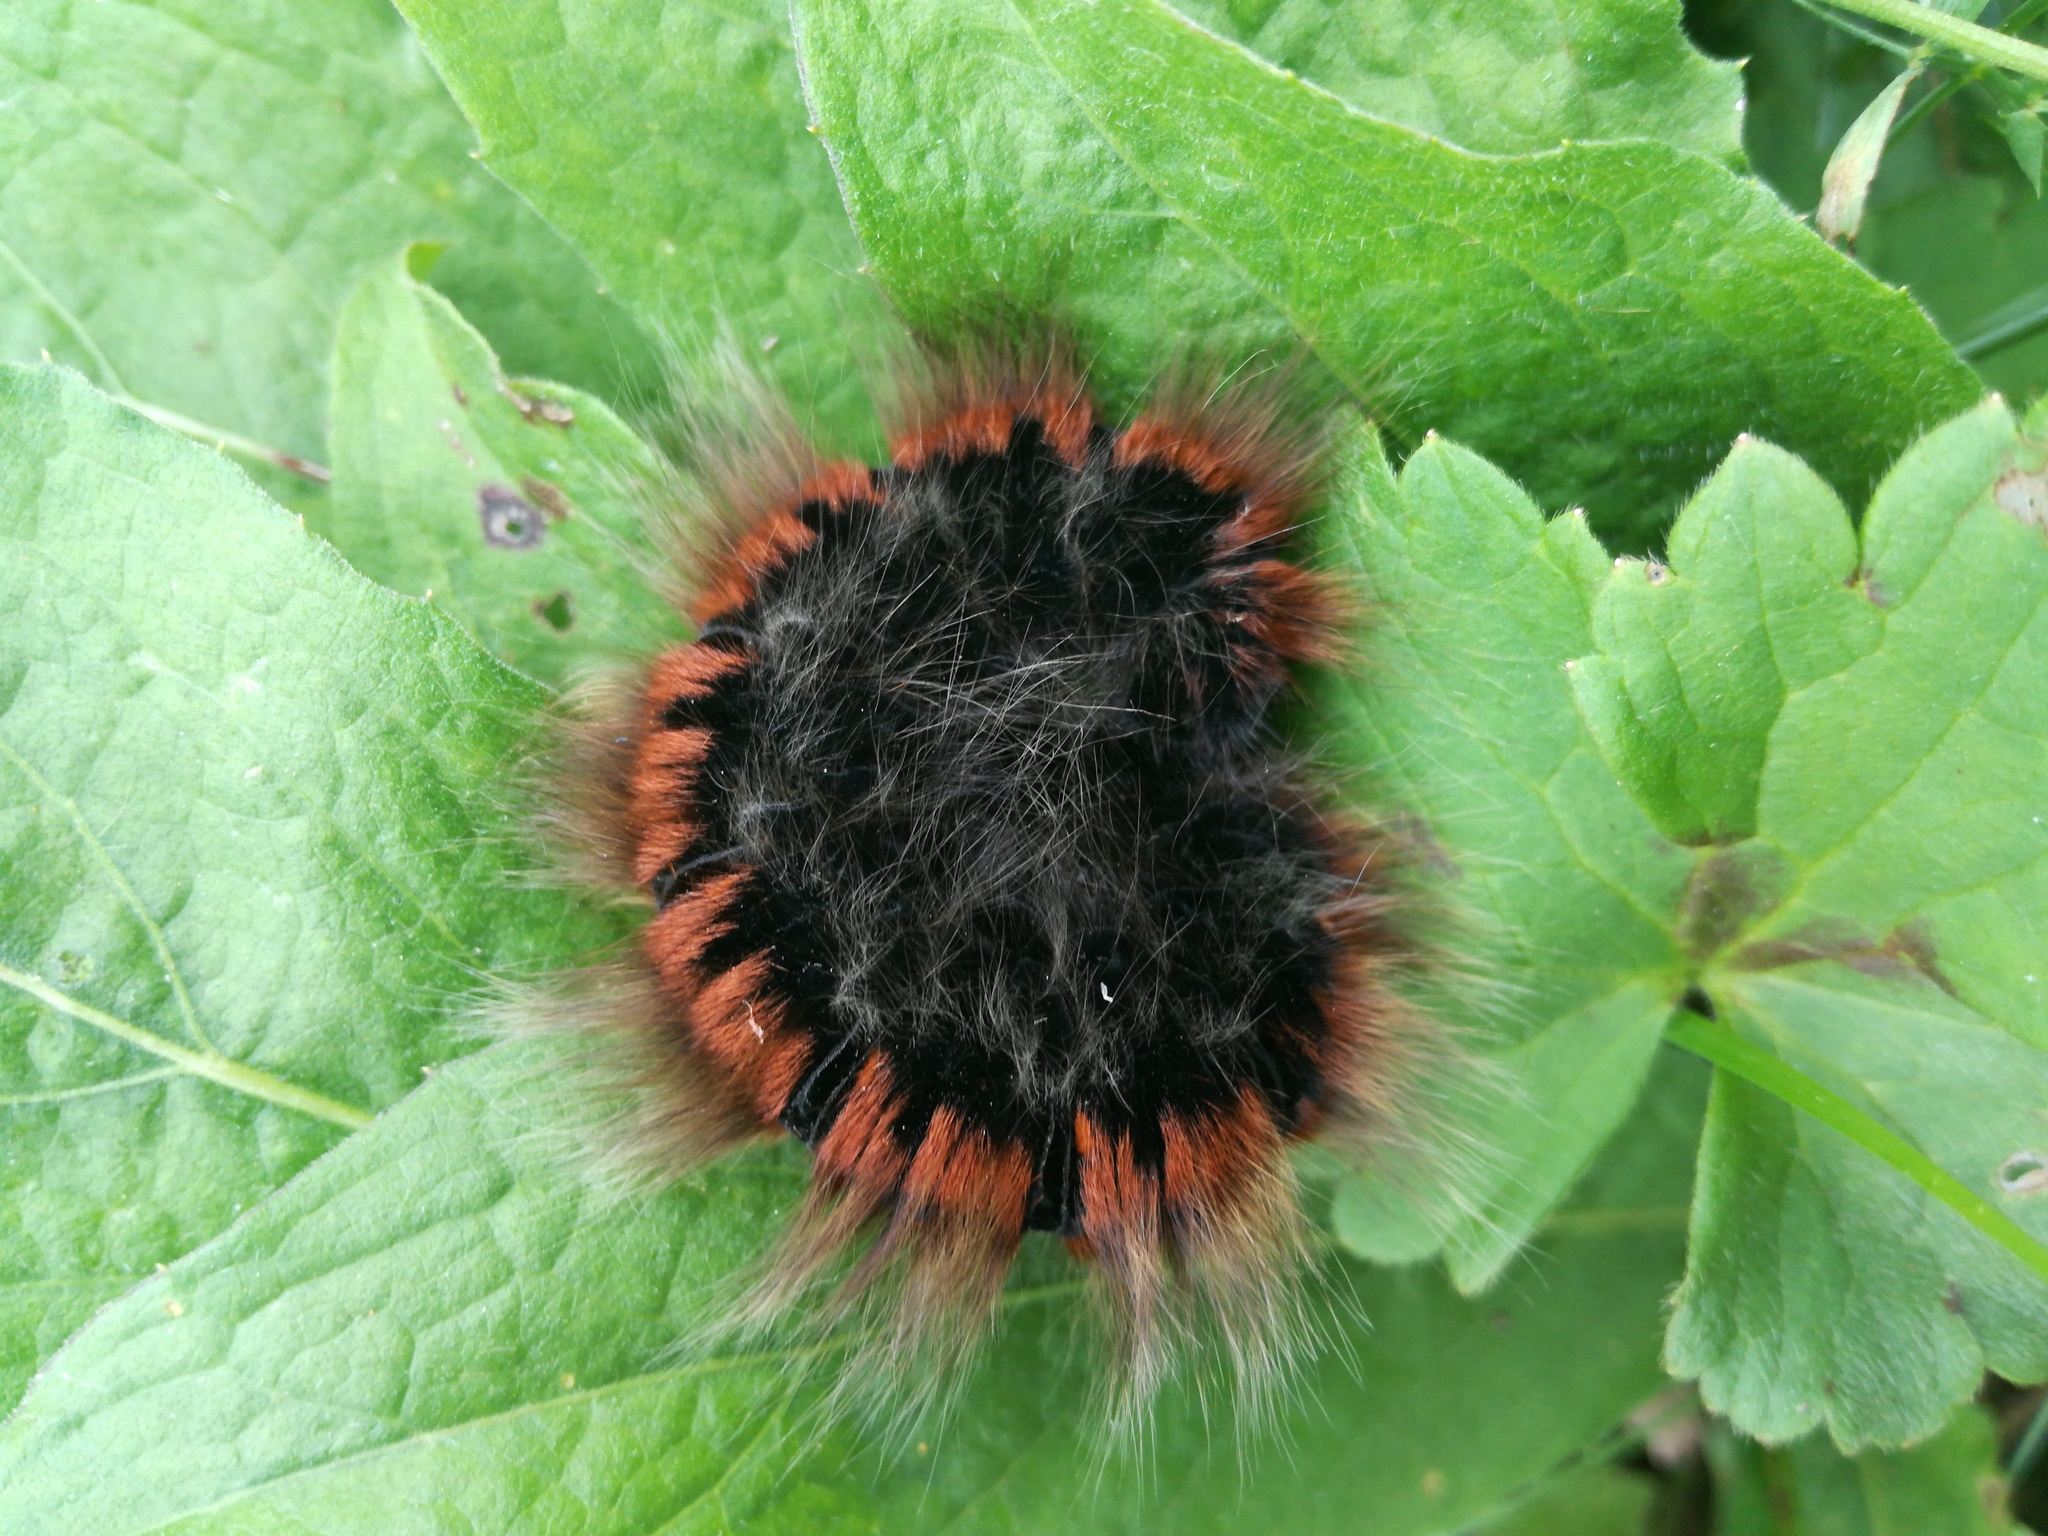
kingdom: Animalia
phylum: Arthropoda
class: Insecta
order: Lepidoptera
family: Lasiocampidae
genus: Macrothylacia
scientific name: Macrothylacia rubi
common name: Fox moth
